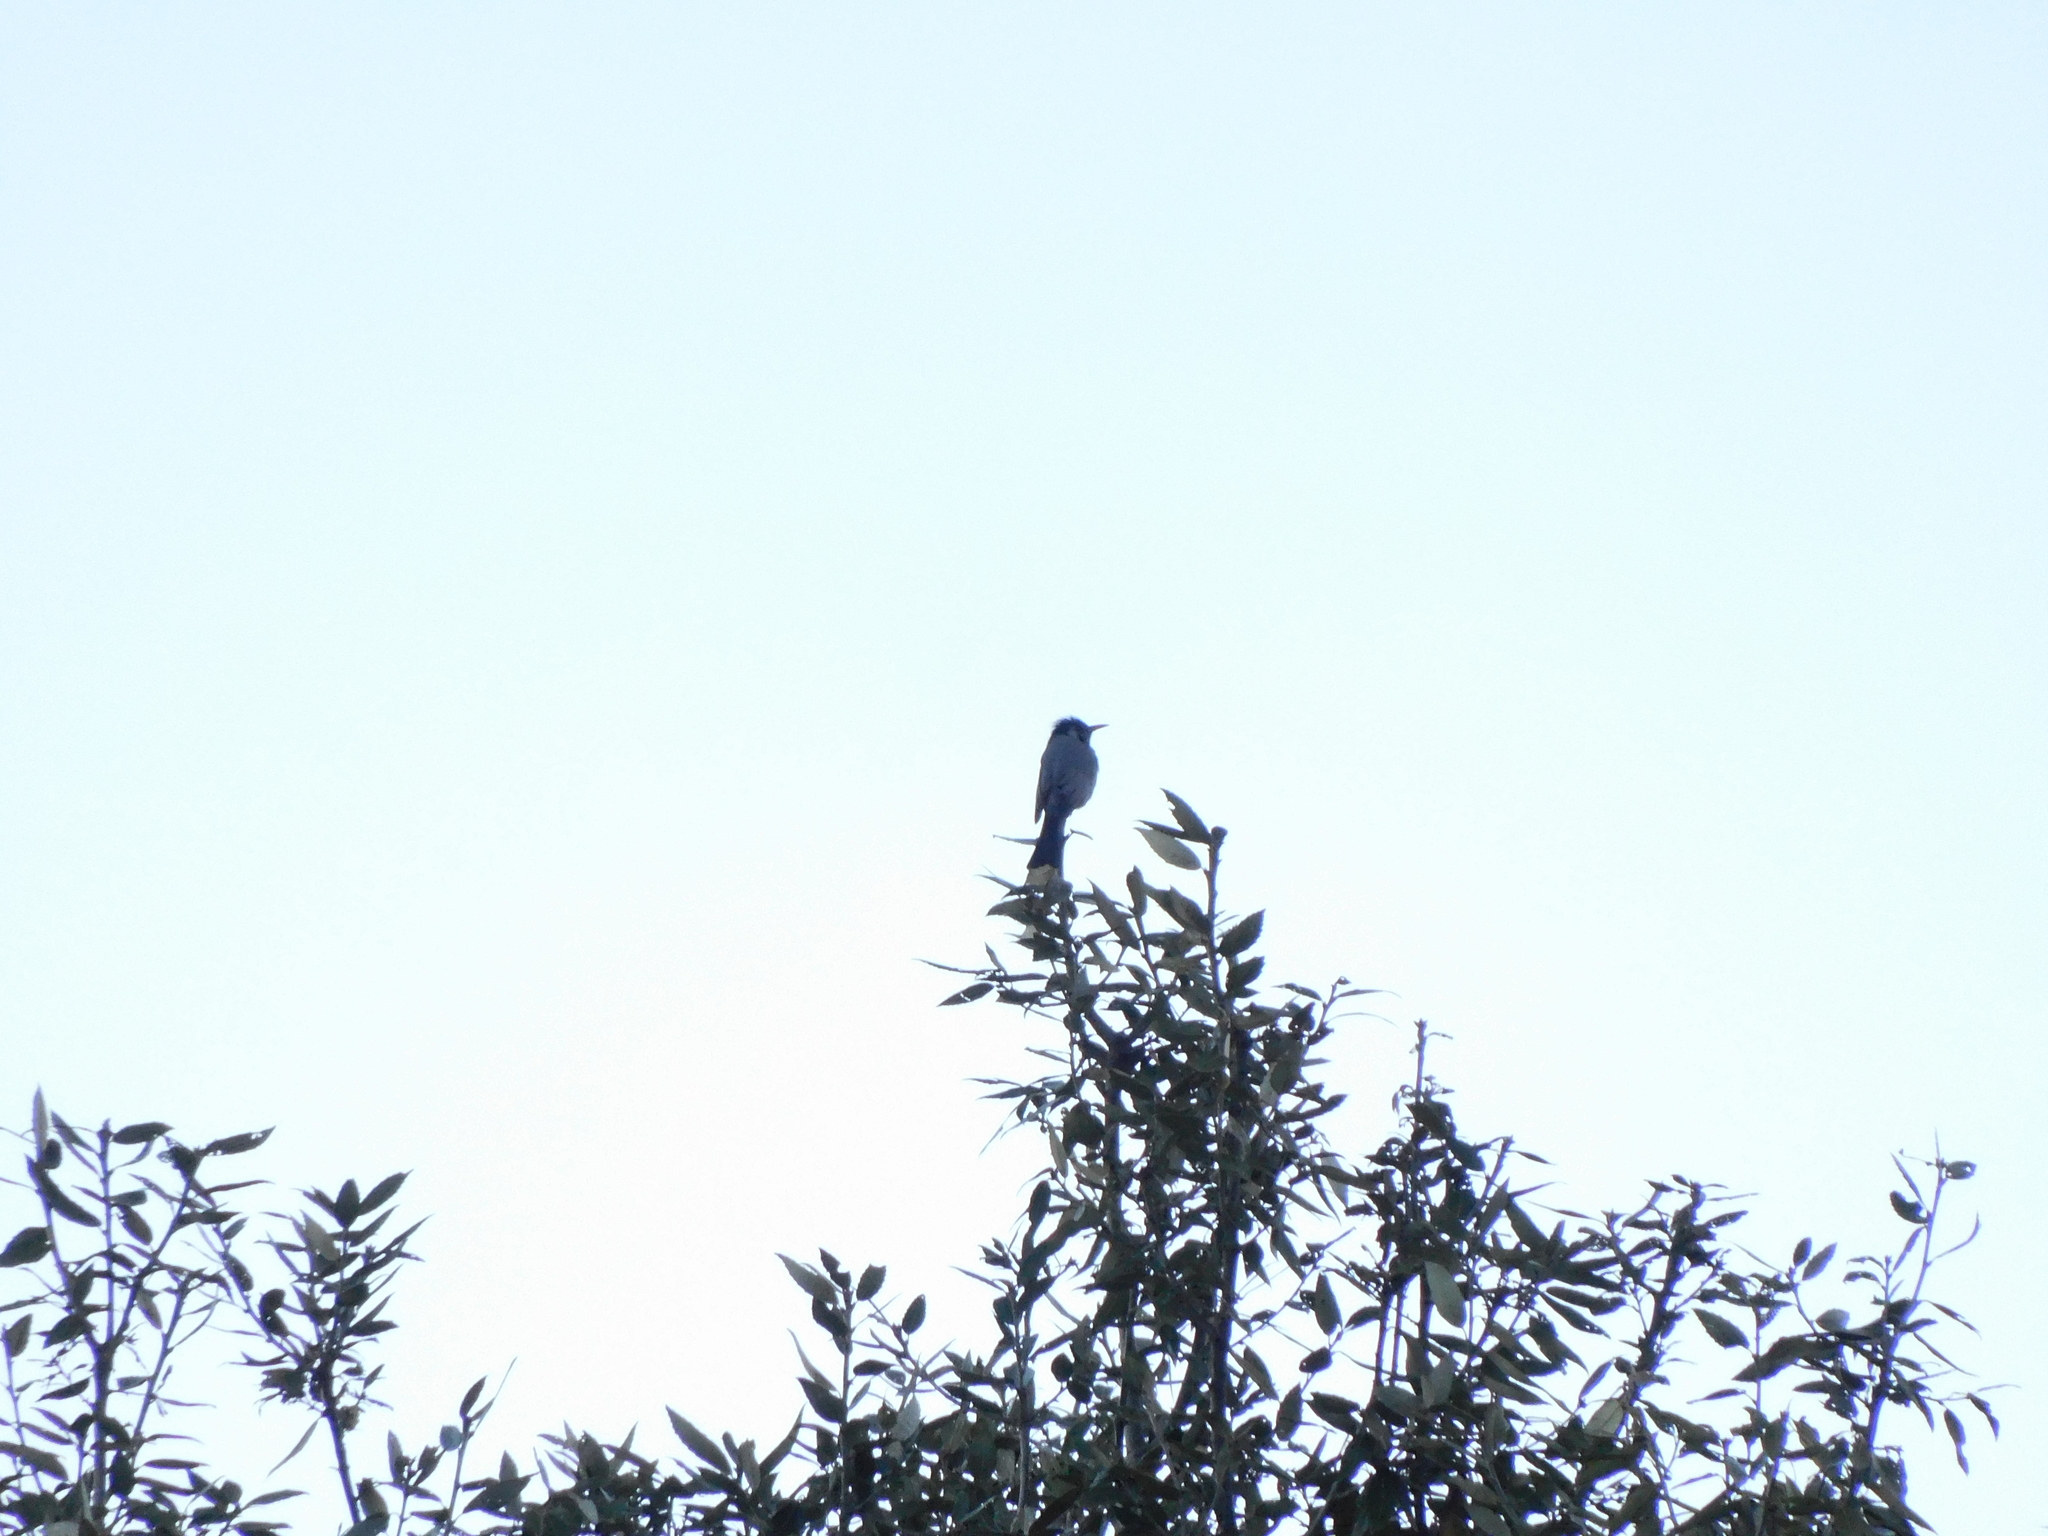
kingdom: Animalia
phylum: Chordata
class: Aves
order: Passeriformes
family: Pycnonotidae
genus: Hypsipetes
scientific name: Hypsipetes leucocephalus
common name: Black bulbul
